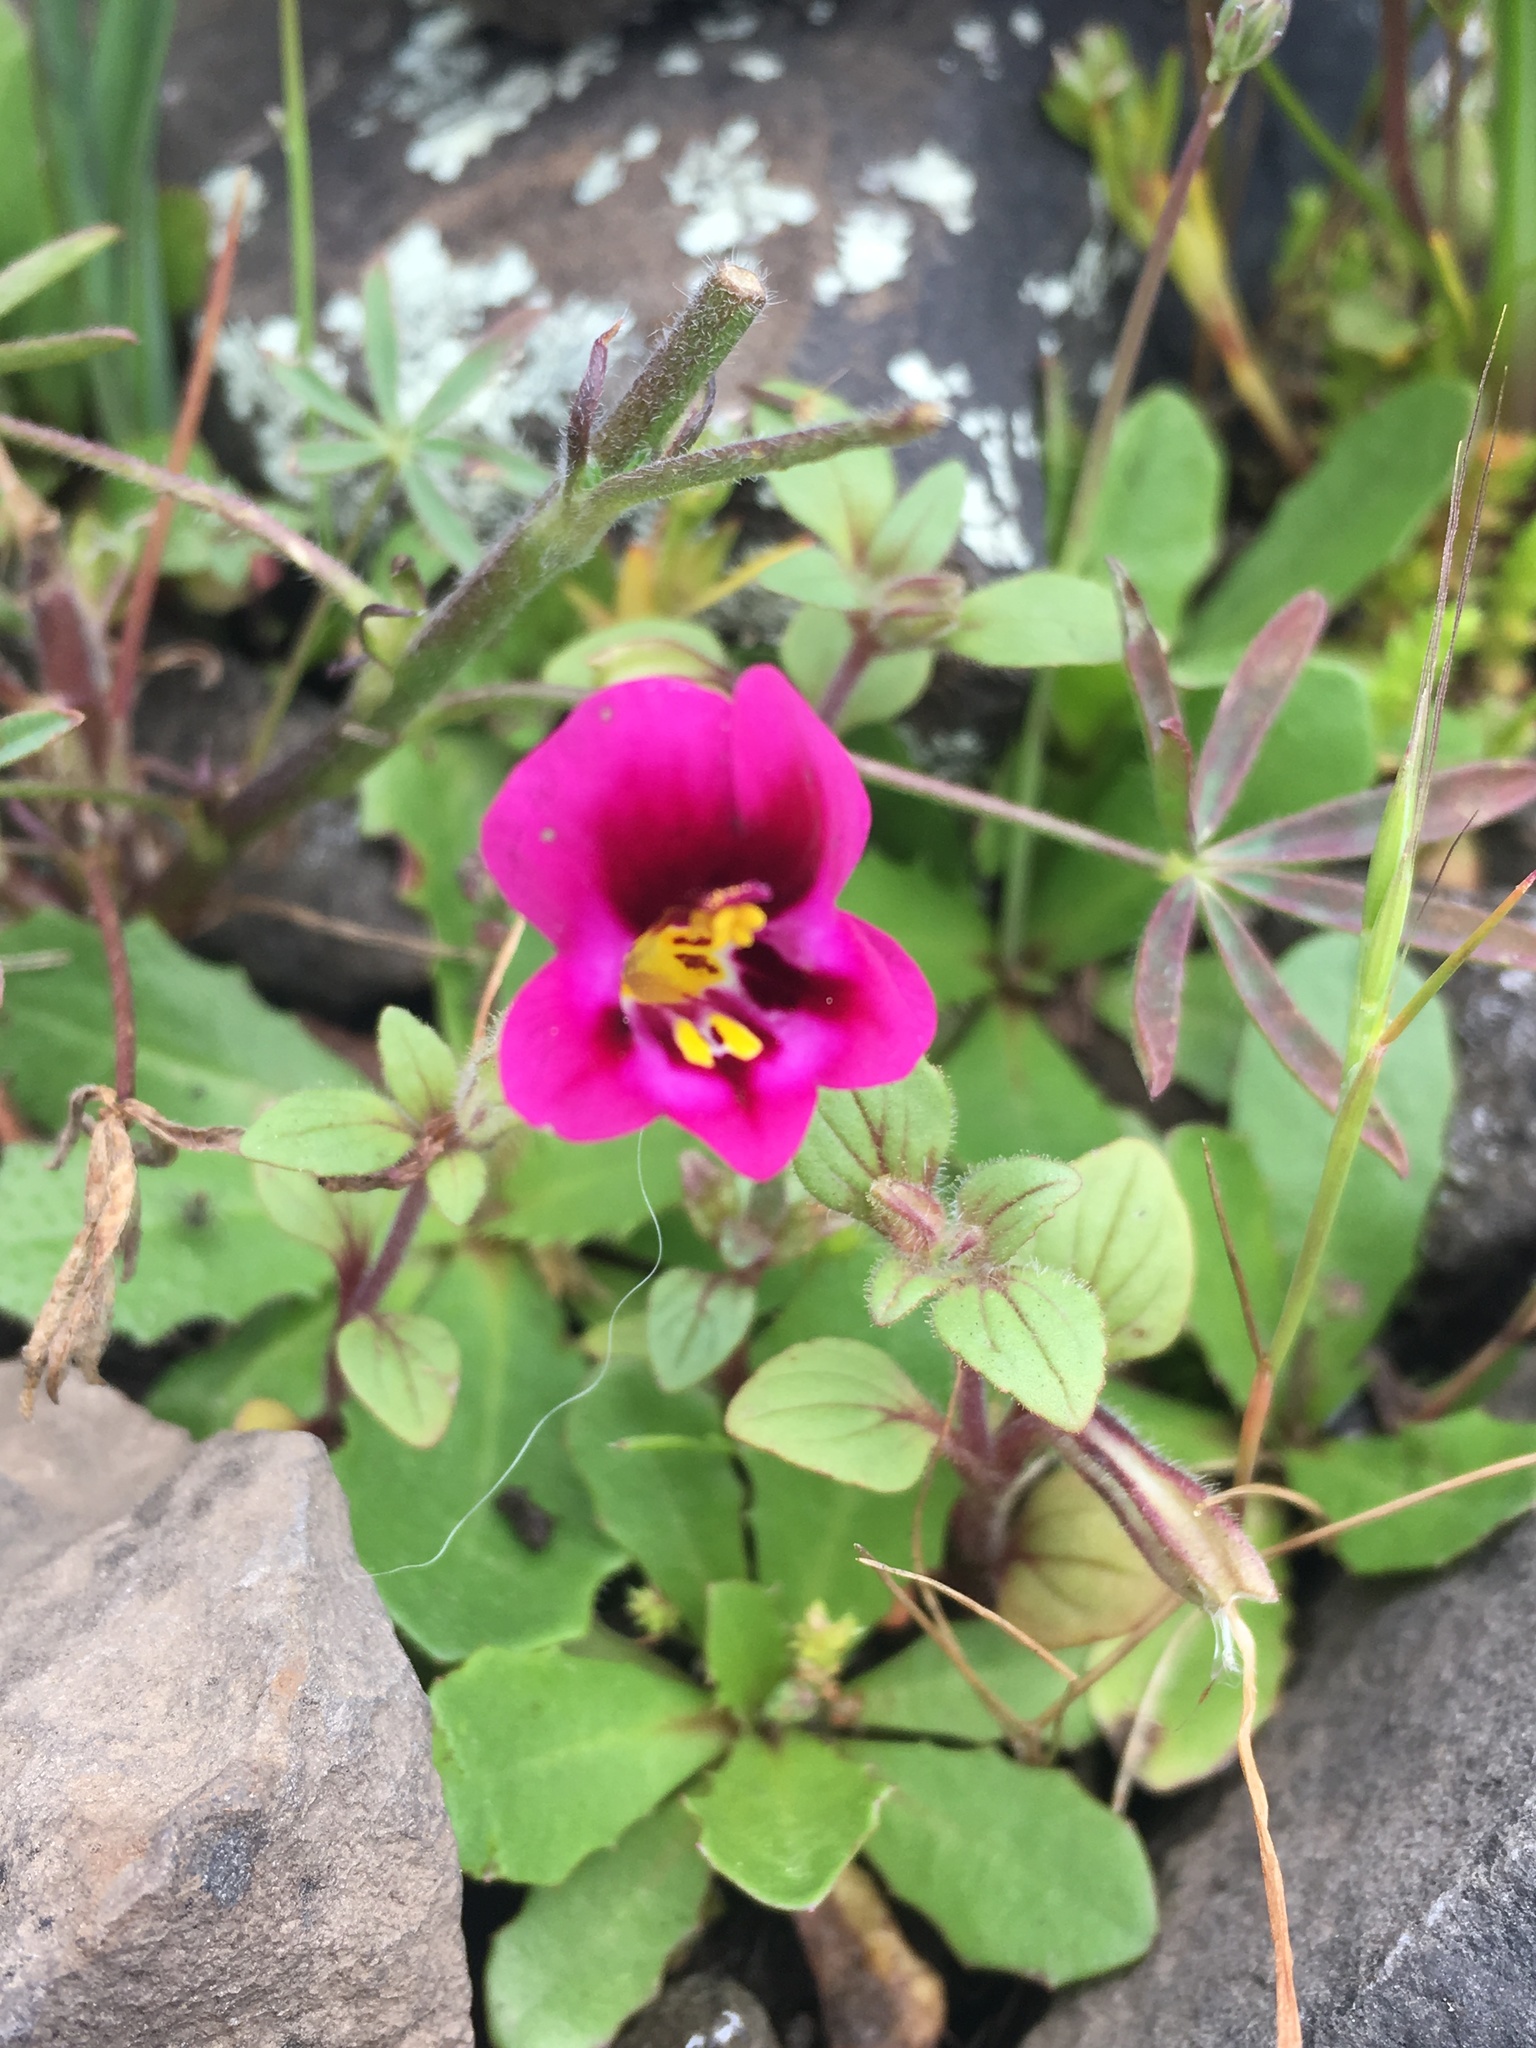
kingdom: Plantae
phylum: Tracheophyta
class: Magnoliopsida
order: Lamiales
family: Phrymaceae
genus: Diplacus
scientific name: Diplacus kelloggii
